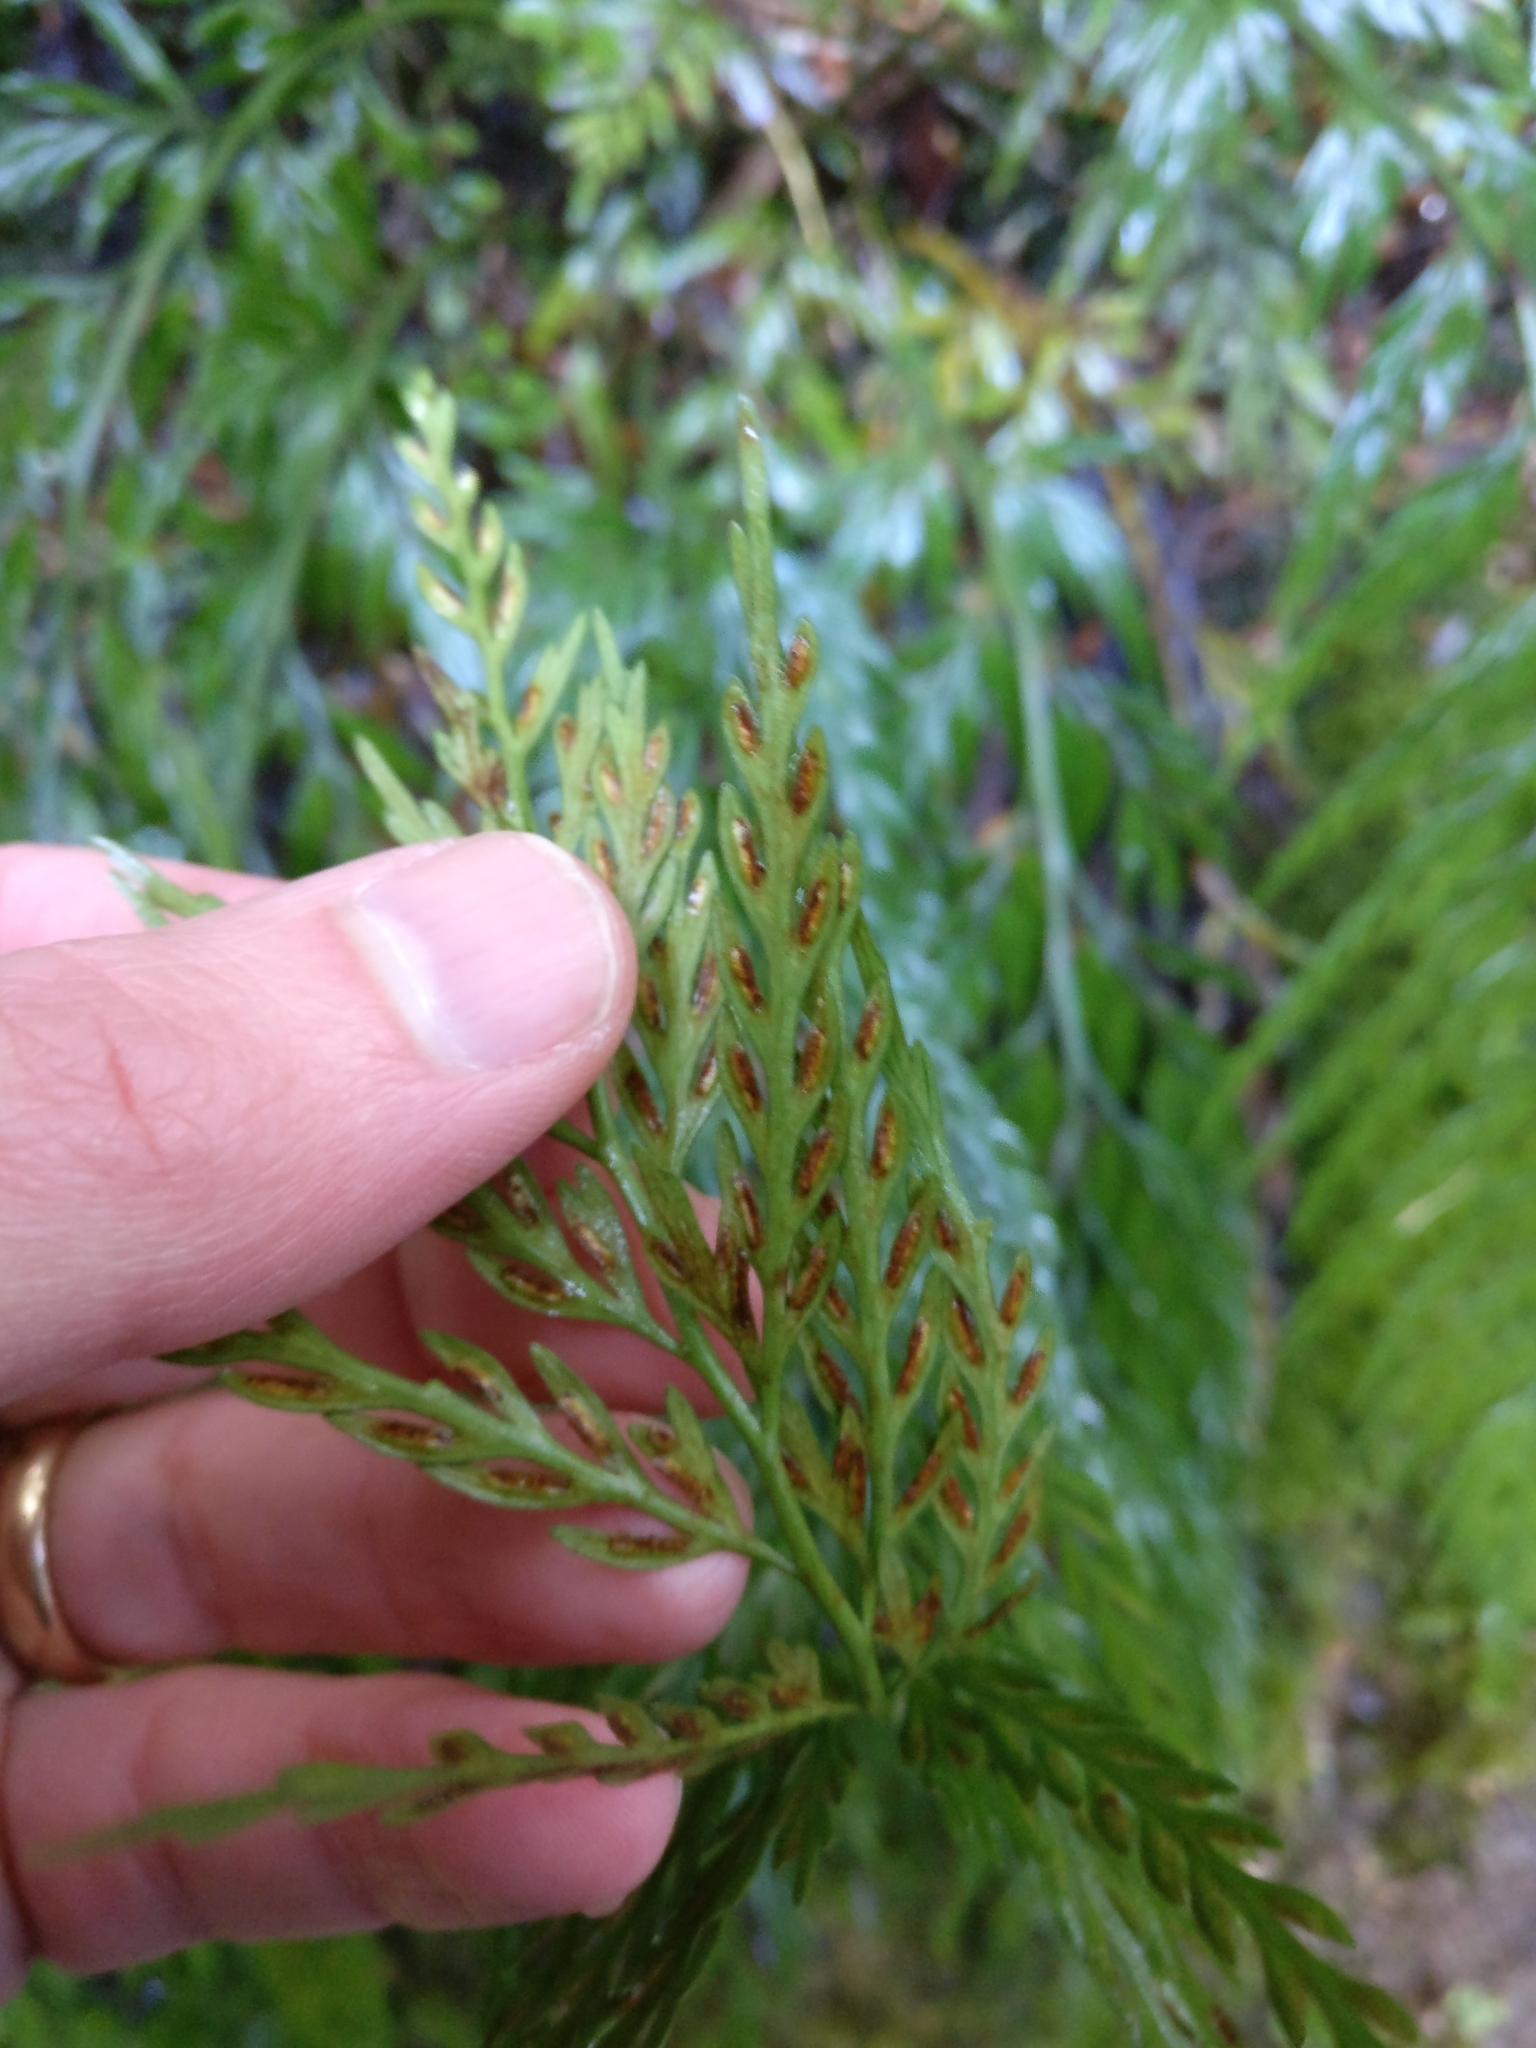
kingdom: Plantae
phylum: Tracheophyta
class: Polypodiopsida
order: Polypodiales
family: Aspleniaceae
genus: Asplenium
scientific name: Asplenium appendiculatum
